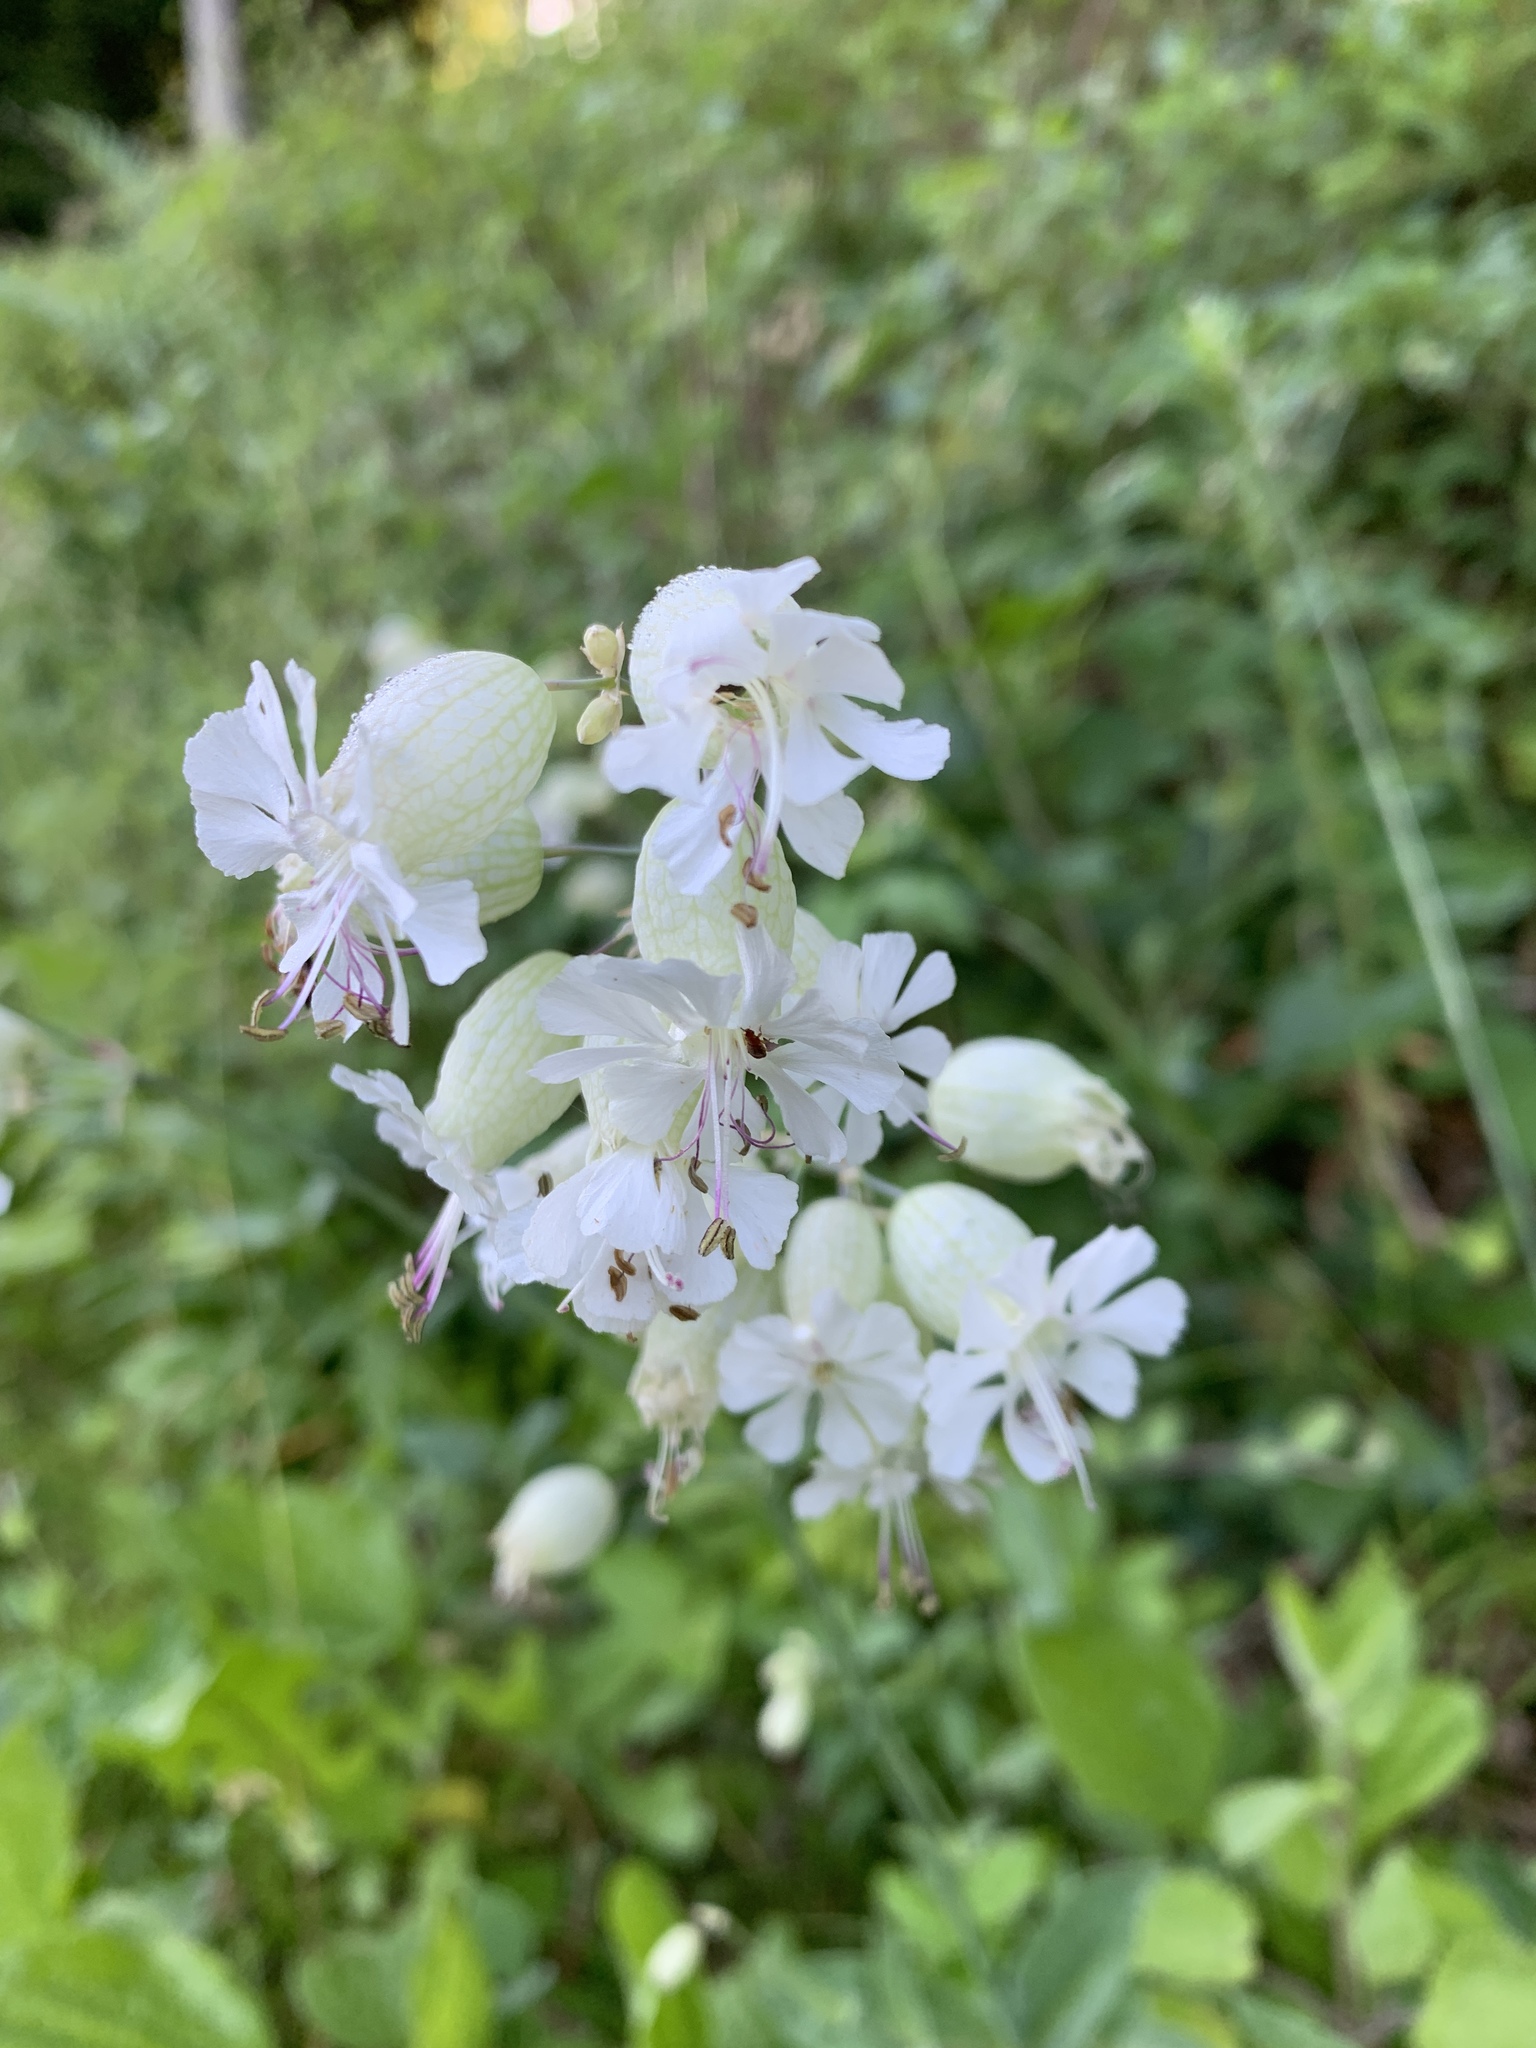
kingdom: Plantae
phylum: Tracheophyta
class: Magnoliopsida
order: Caryophyllales
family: Caryophyllaceae
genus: Silene
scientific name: Silene vulgaris
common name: Bladder campion
